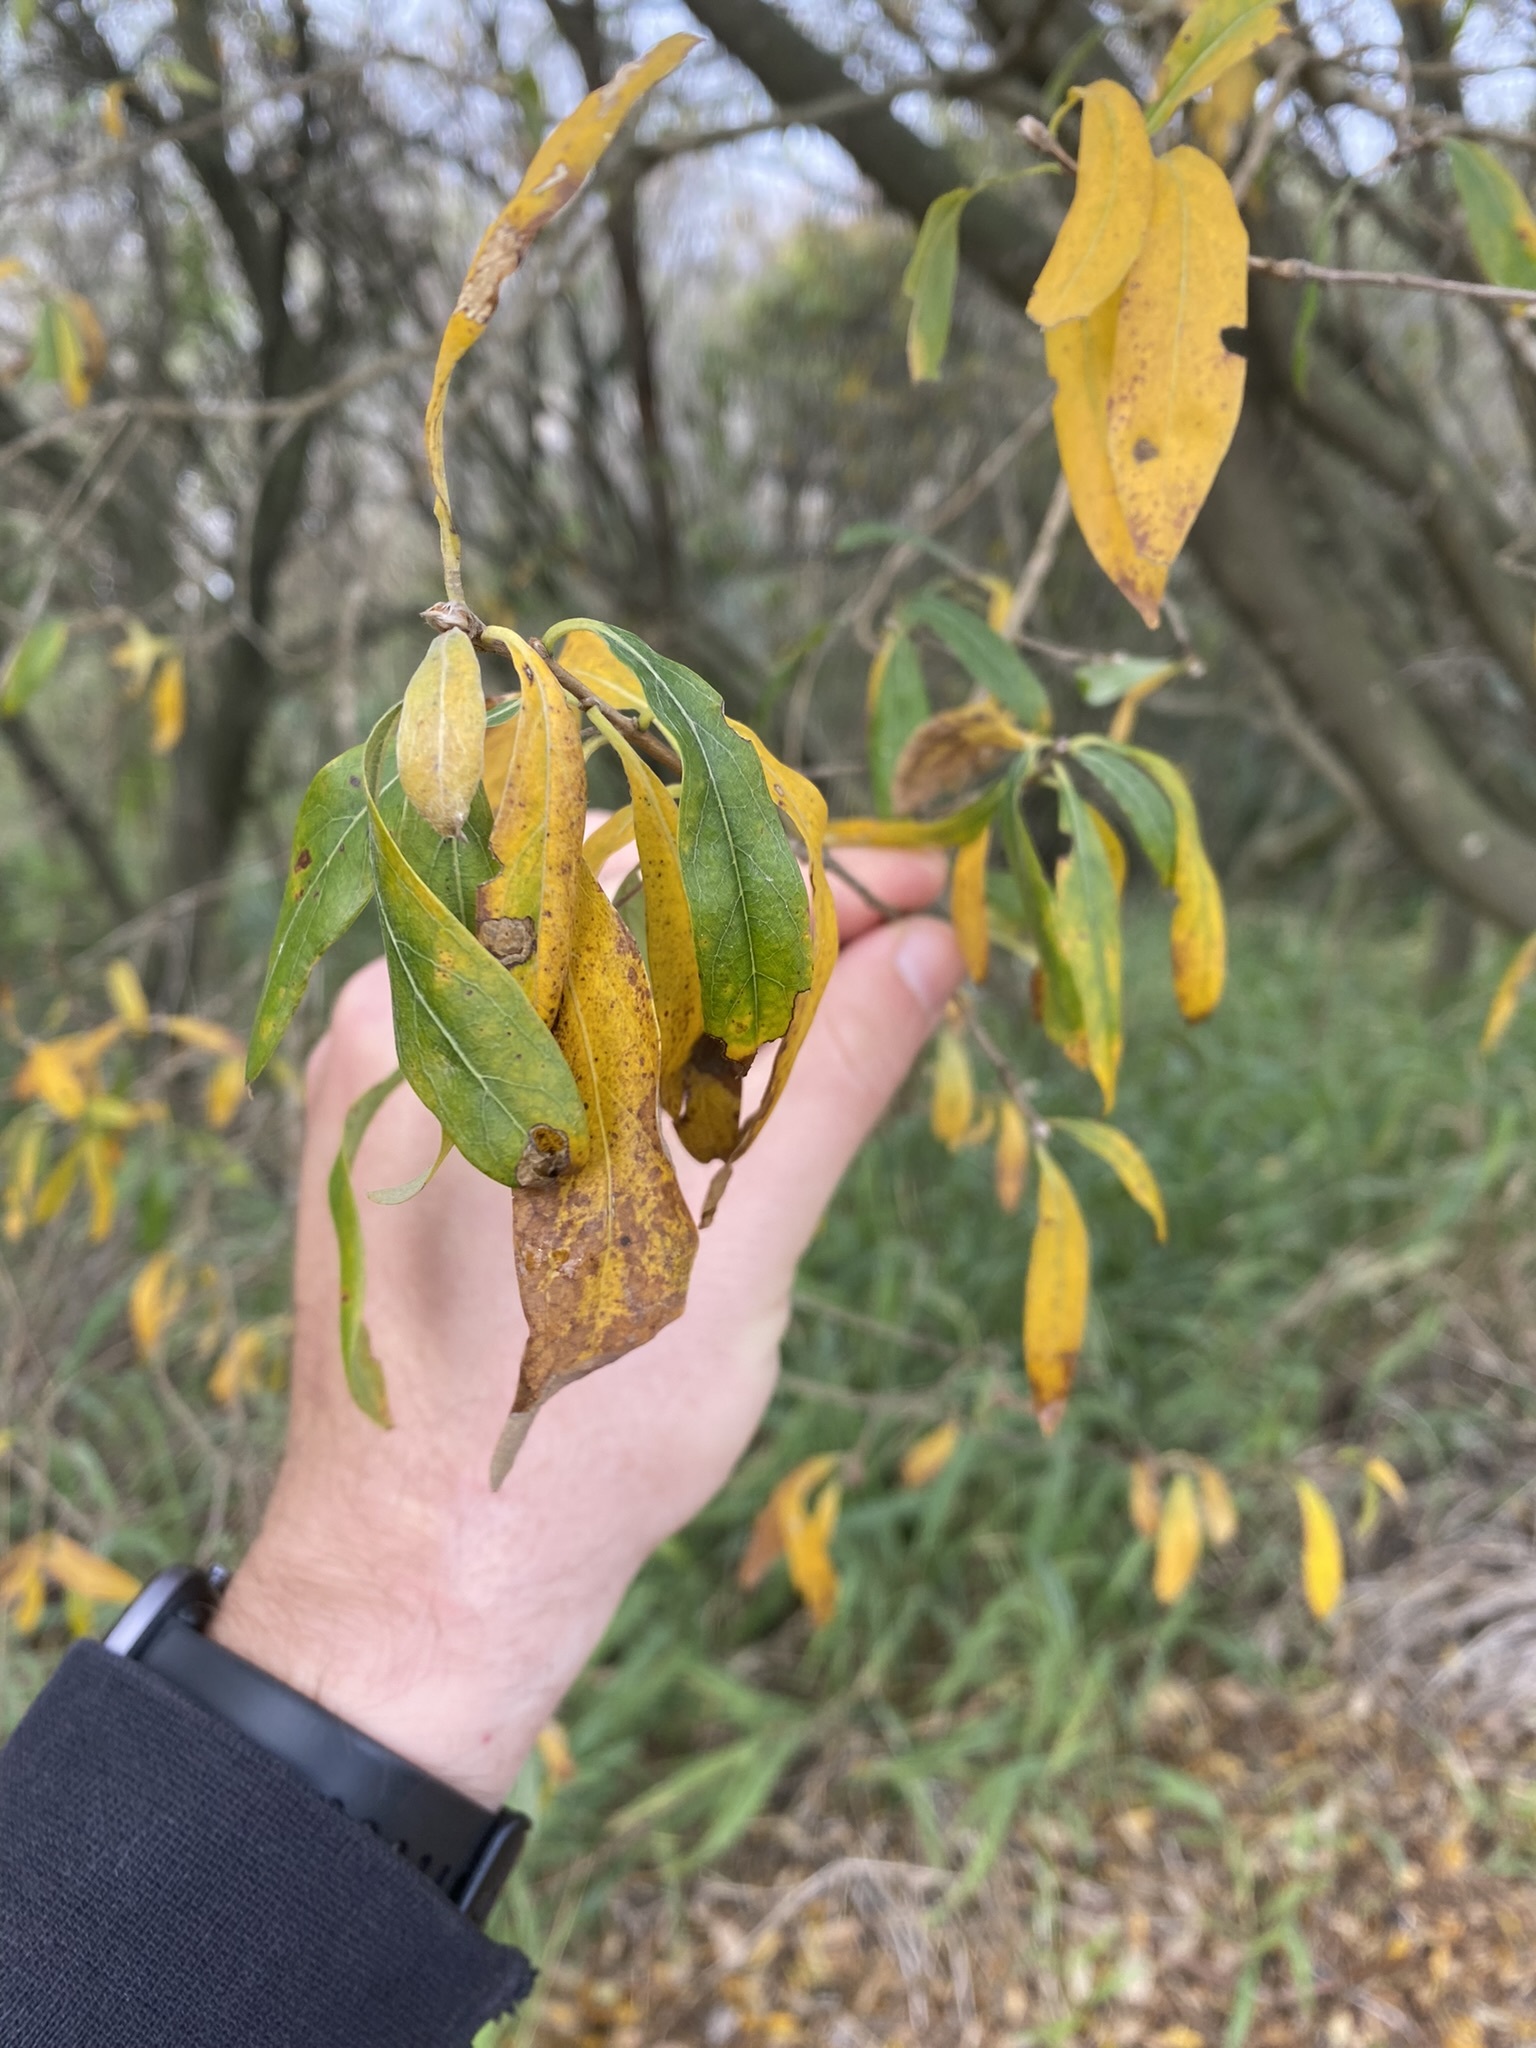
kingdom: Plantae
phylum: Tracheophyta
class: Magnoliopsida
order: Myrtales
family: Combretaceae
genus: Terminalia
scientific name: Terminalia australis
